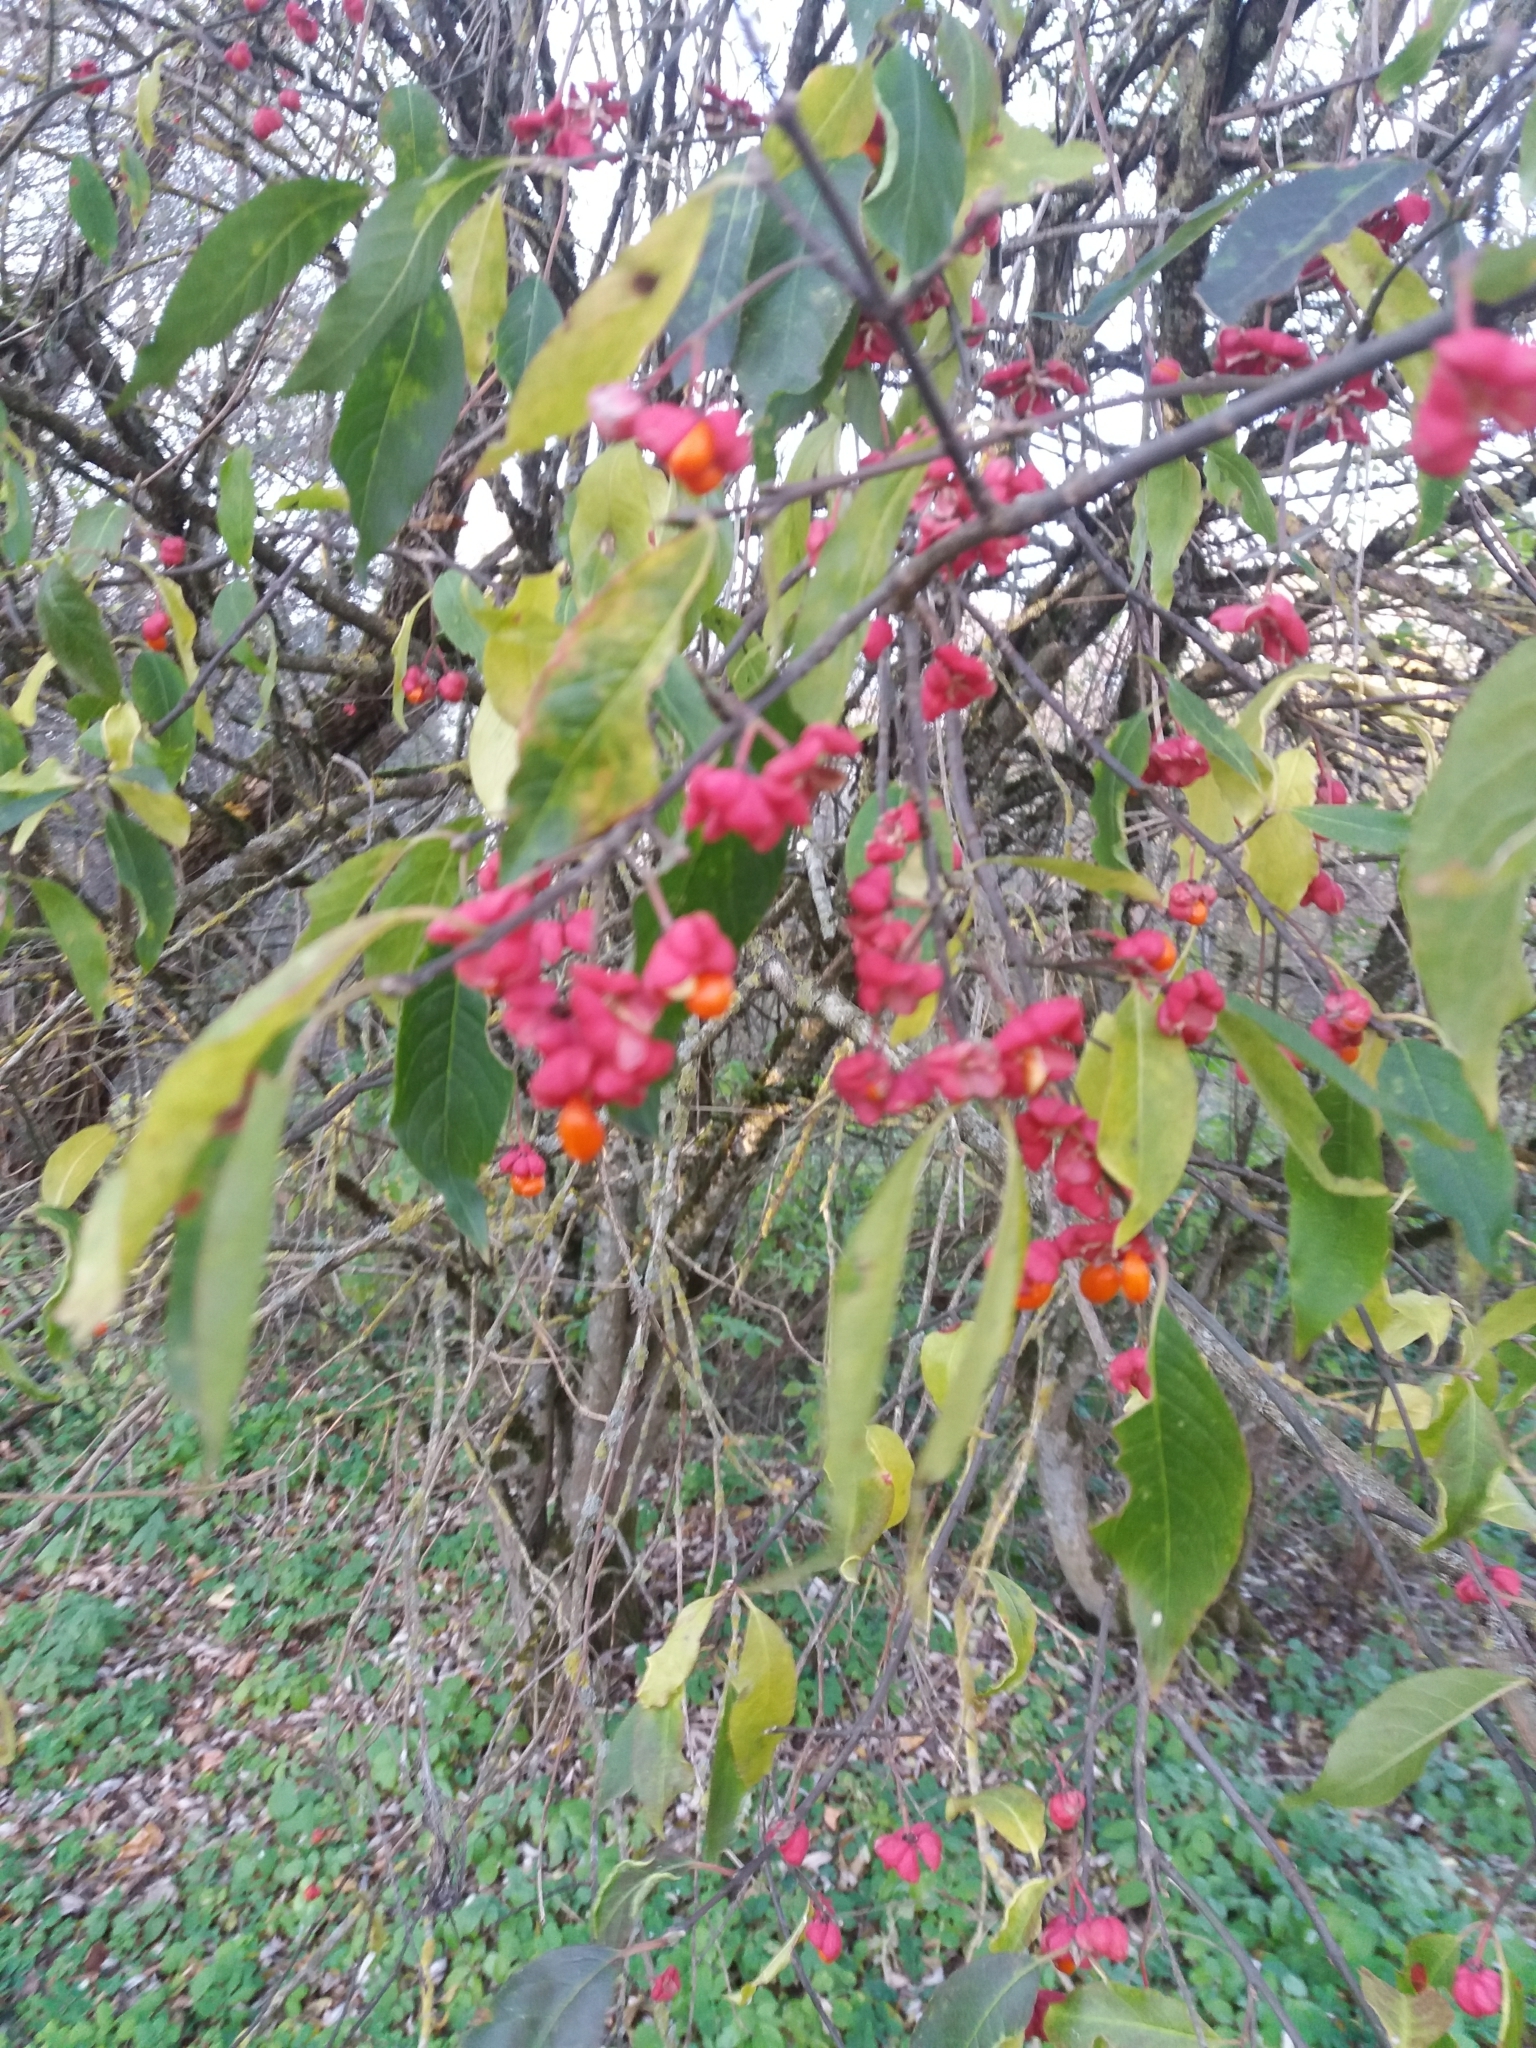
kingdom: Plantae
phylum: Tracheophyta
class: Magnoliopsida
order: Celastrales
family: Celastraceae
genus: Euonymus
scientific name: Euonymus europaeus
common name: Spindle
